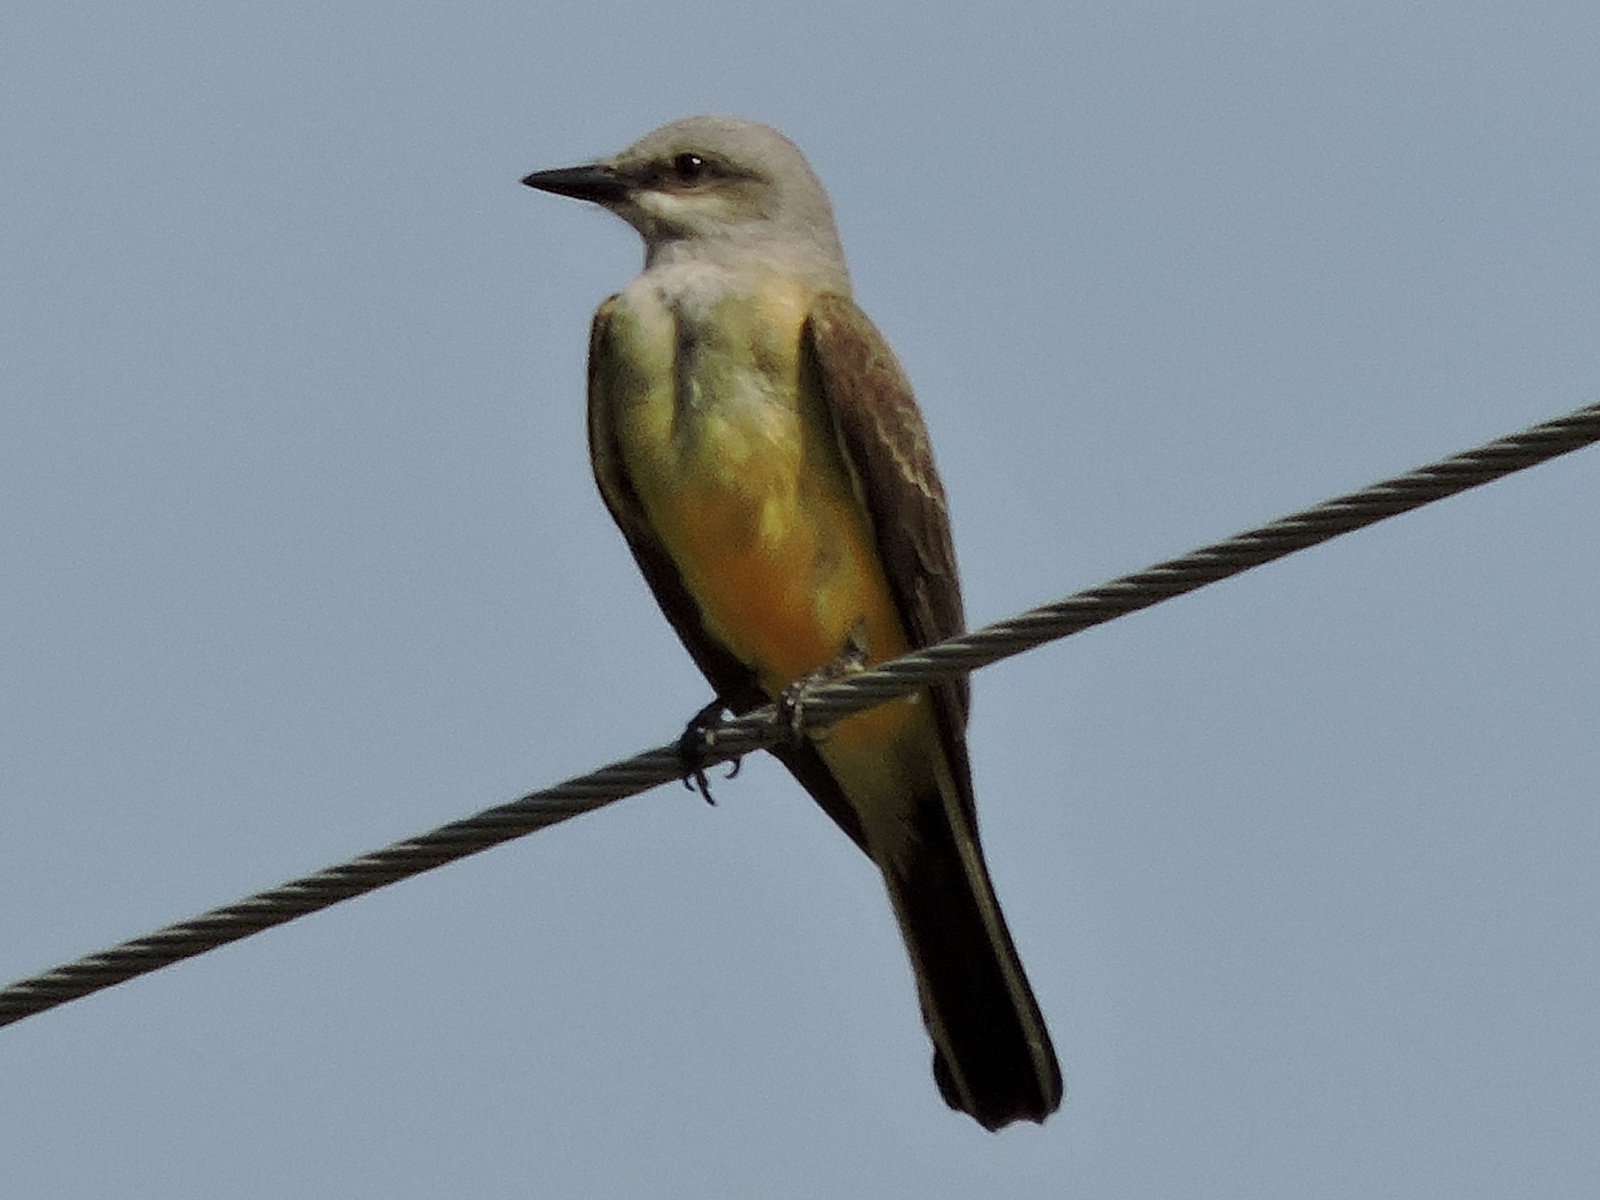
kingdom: Animalia
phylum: Chordata
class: Aves
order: Passeriformes
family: Tyrannidae
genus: Tyrannus
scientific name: Tyrannus verticalis
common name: Western kingbird
